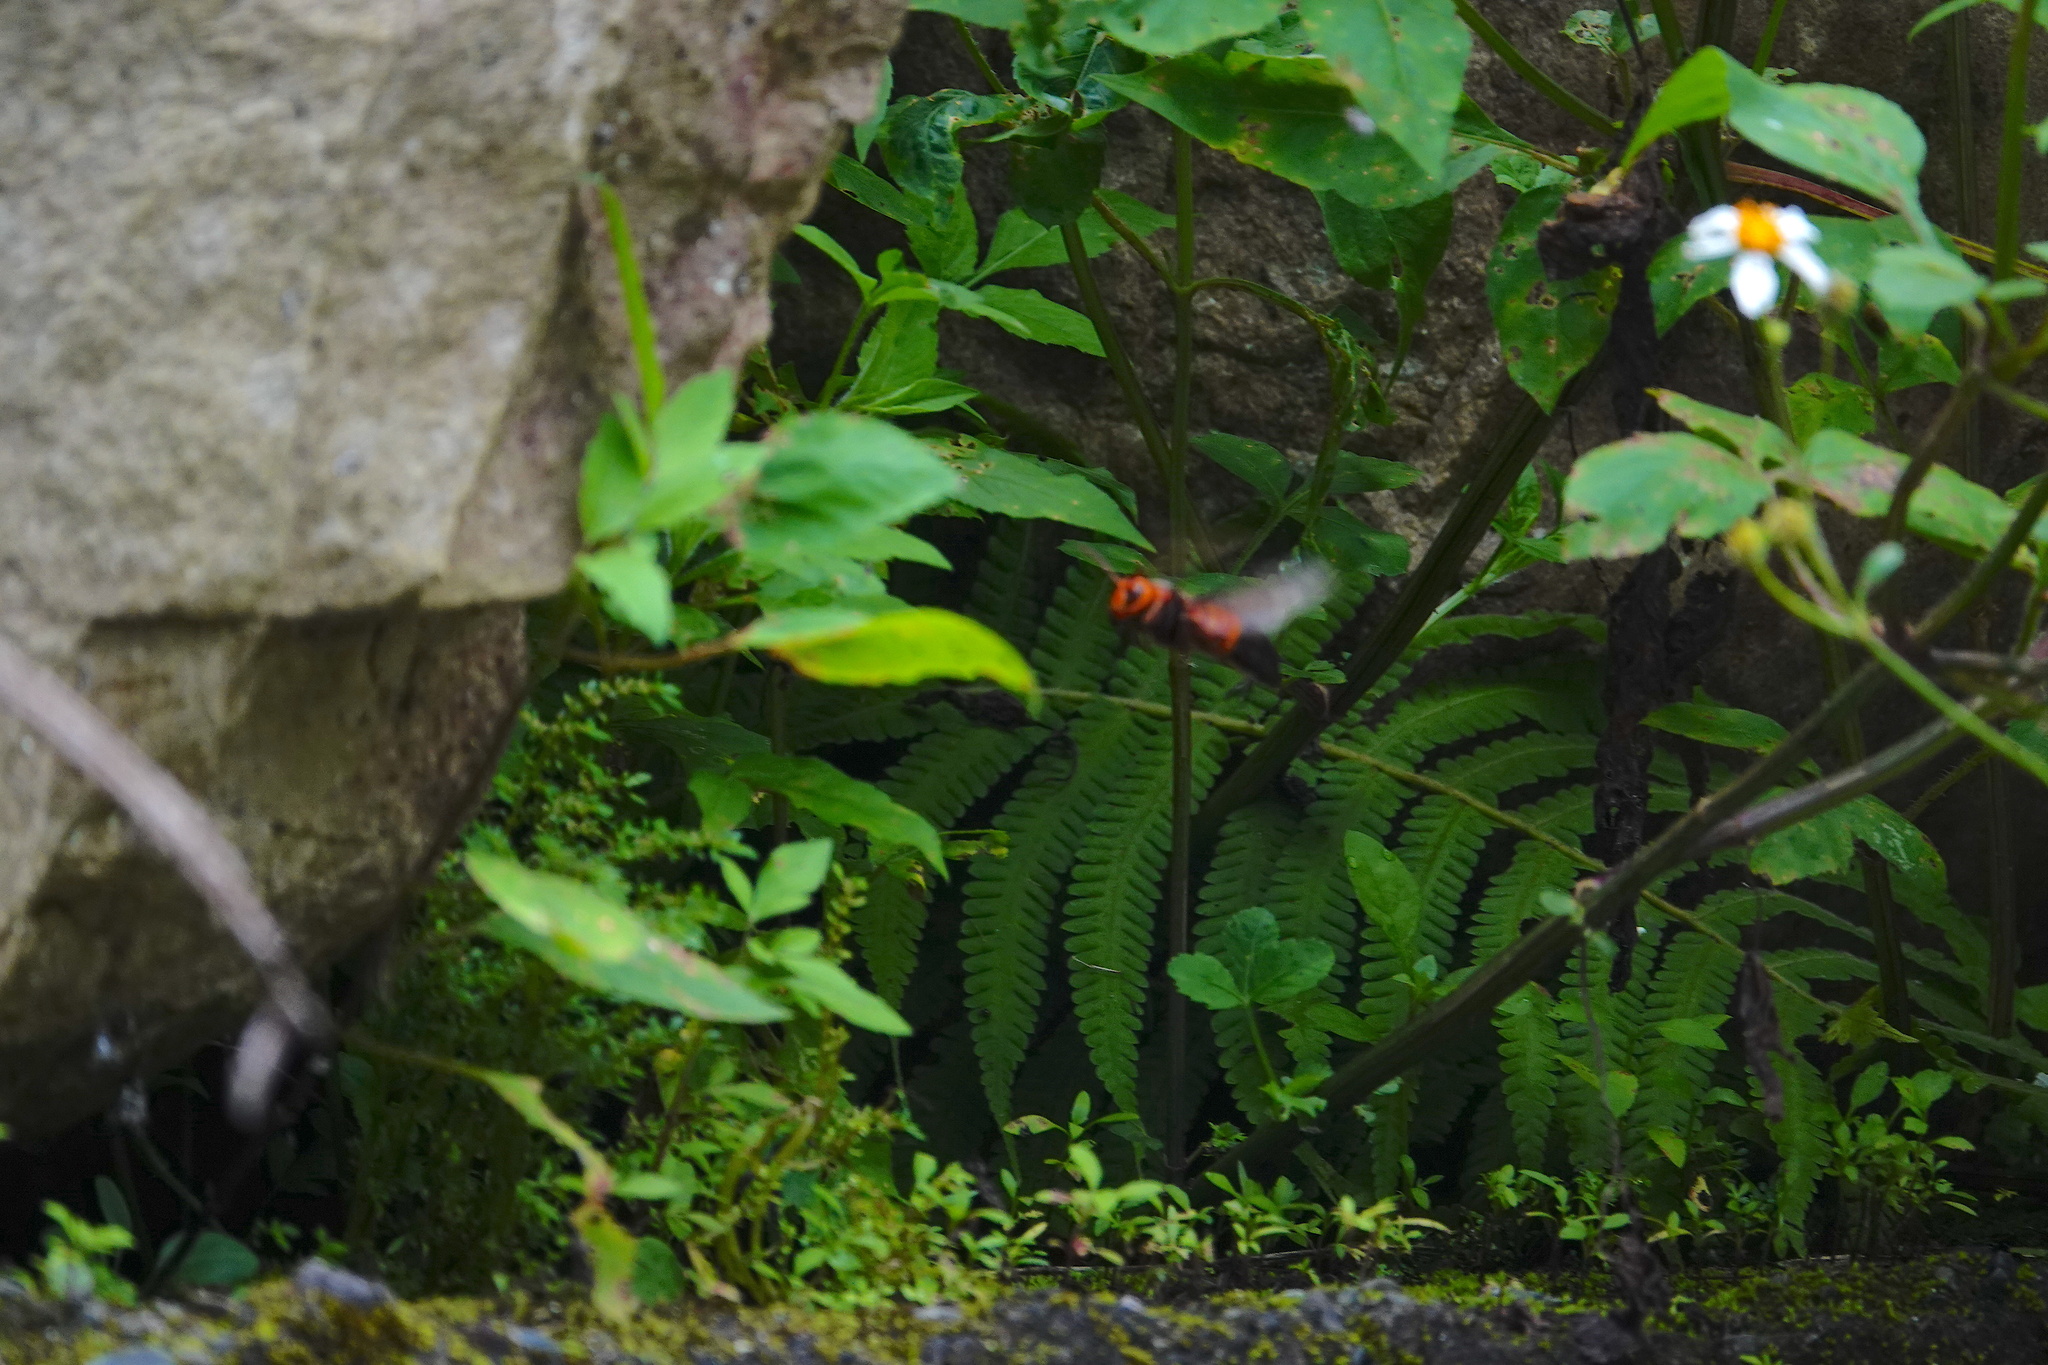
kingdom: Animalia
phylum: Arthropoda
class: Insecta
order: Hymenoptera
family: Vespidae
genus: Vespa
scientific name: Vespa ducalis
